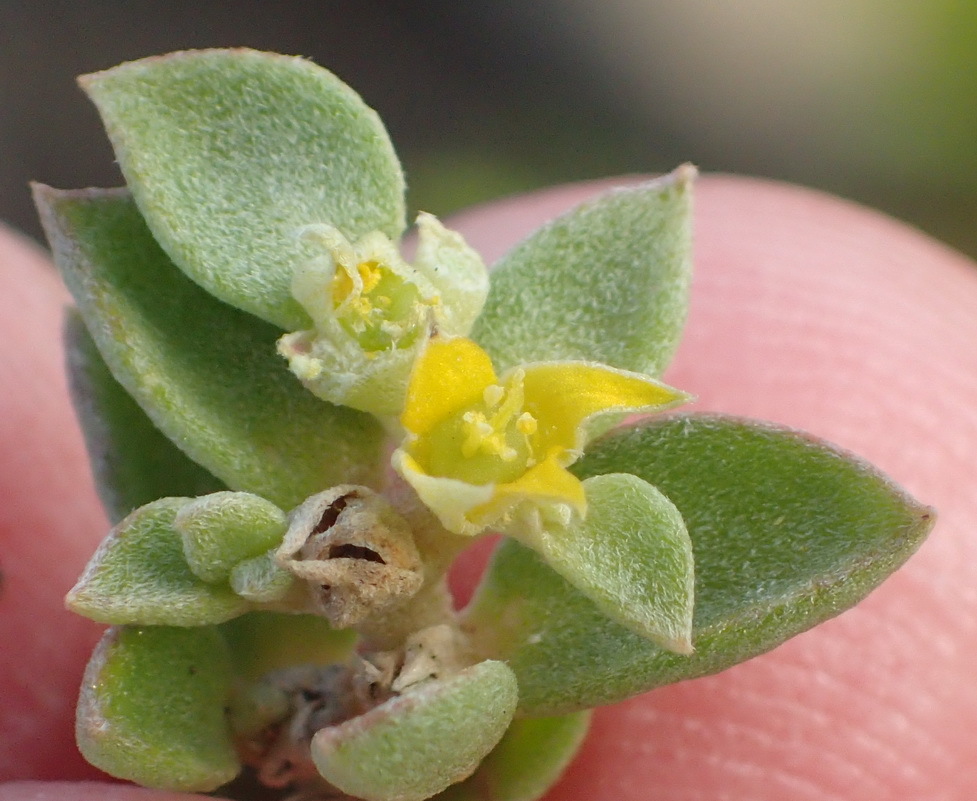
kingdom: Plantae
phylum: Tracheophyta
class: Magnoliopsida
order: Caryophyllales
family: Aizoaceae
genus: Aizoon
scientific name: Aizoon rigidum
